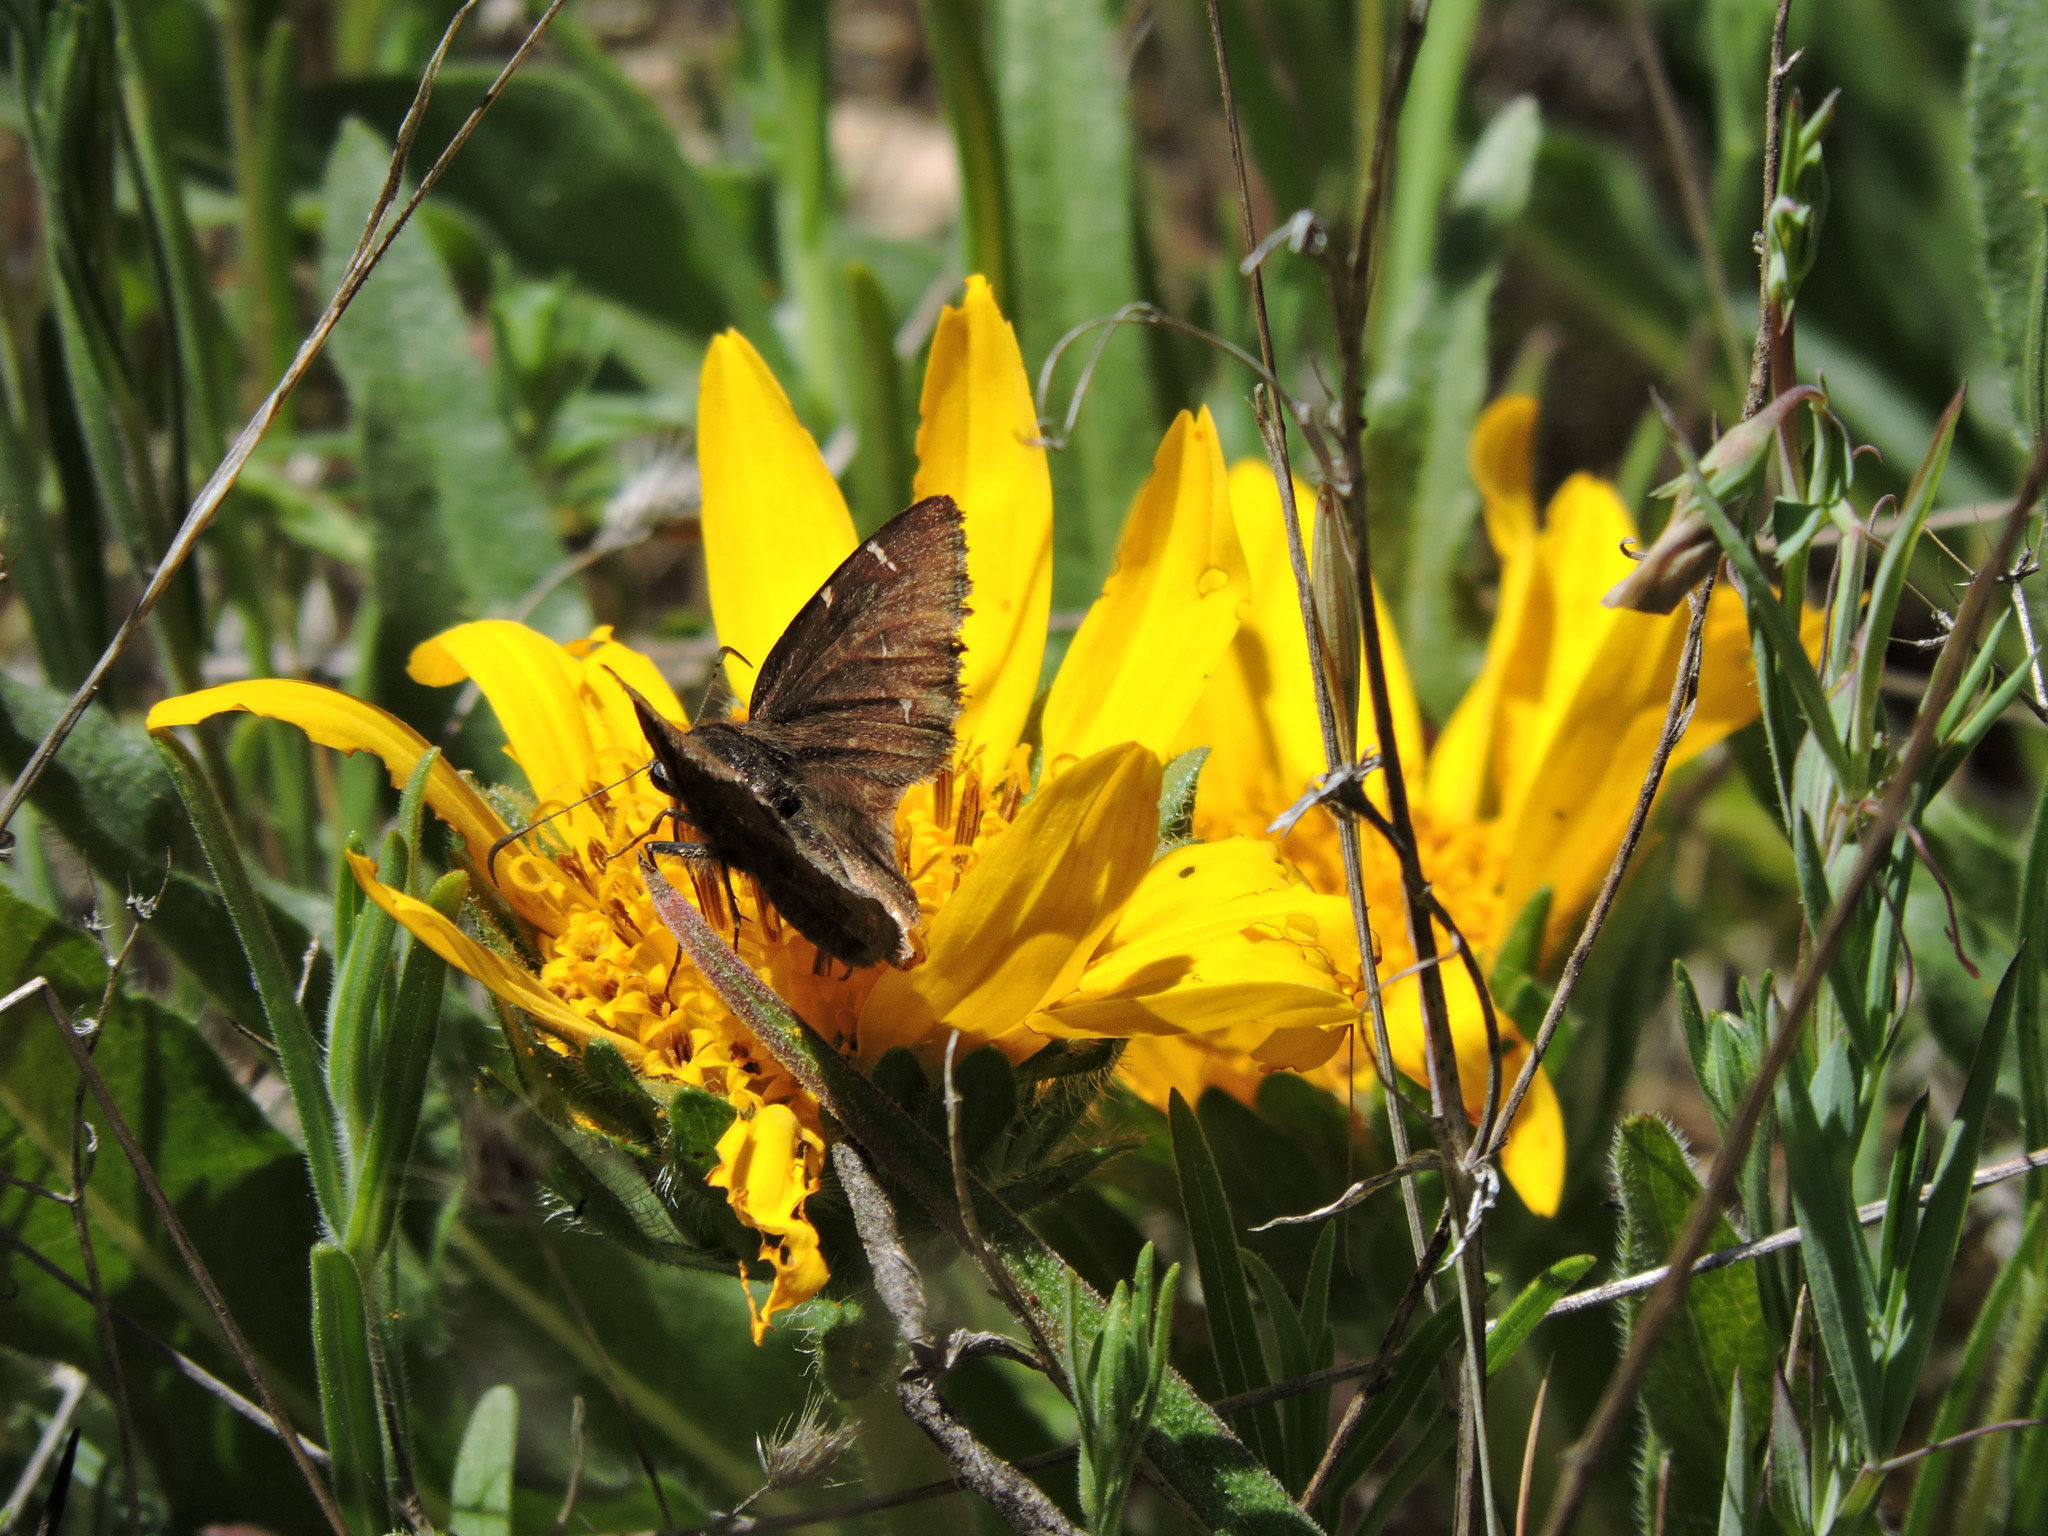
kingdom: Animalia
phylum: Arthropoda
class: Insecta
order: Lepidoptera
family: Hesperiidae
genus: Thorybes
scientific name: Thorybes pylades
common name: Northern cloudywing
